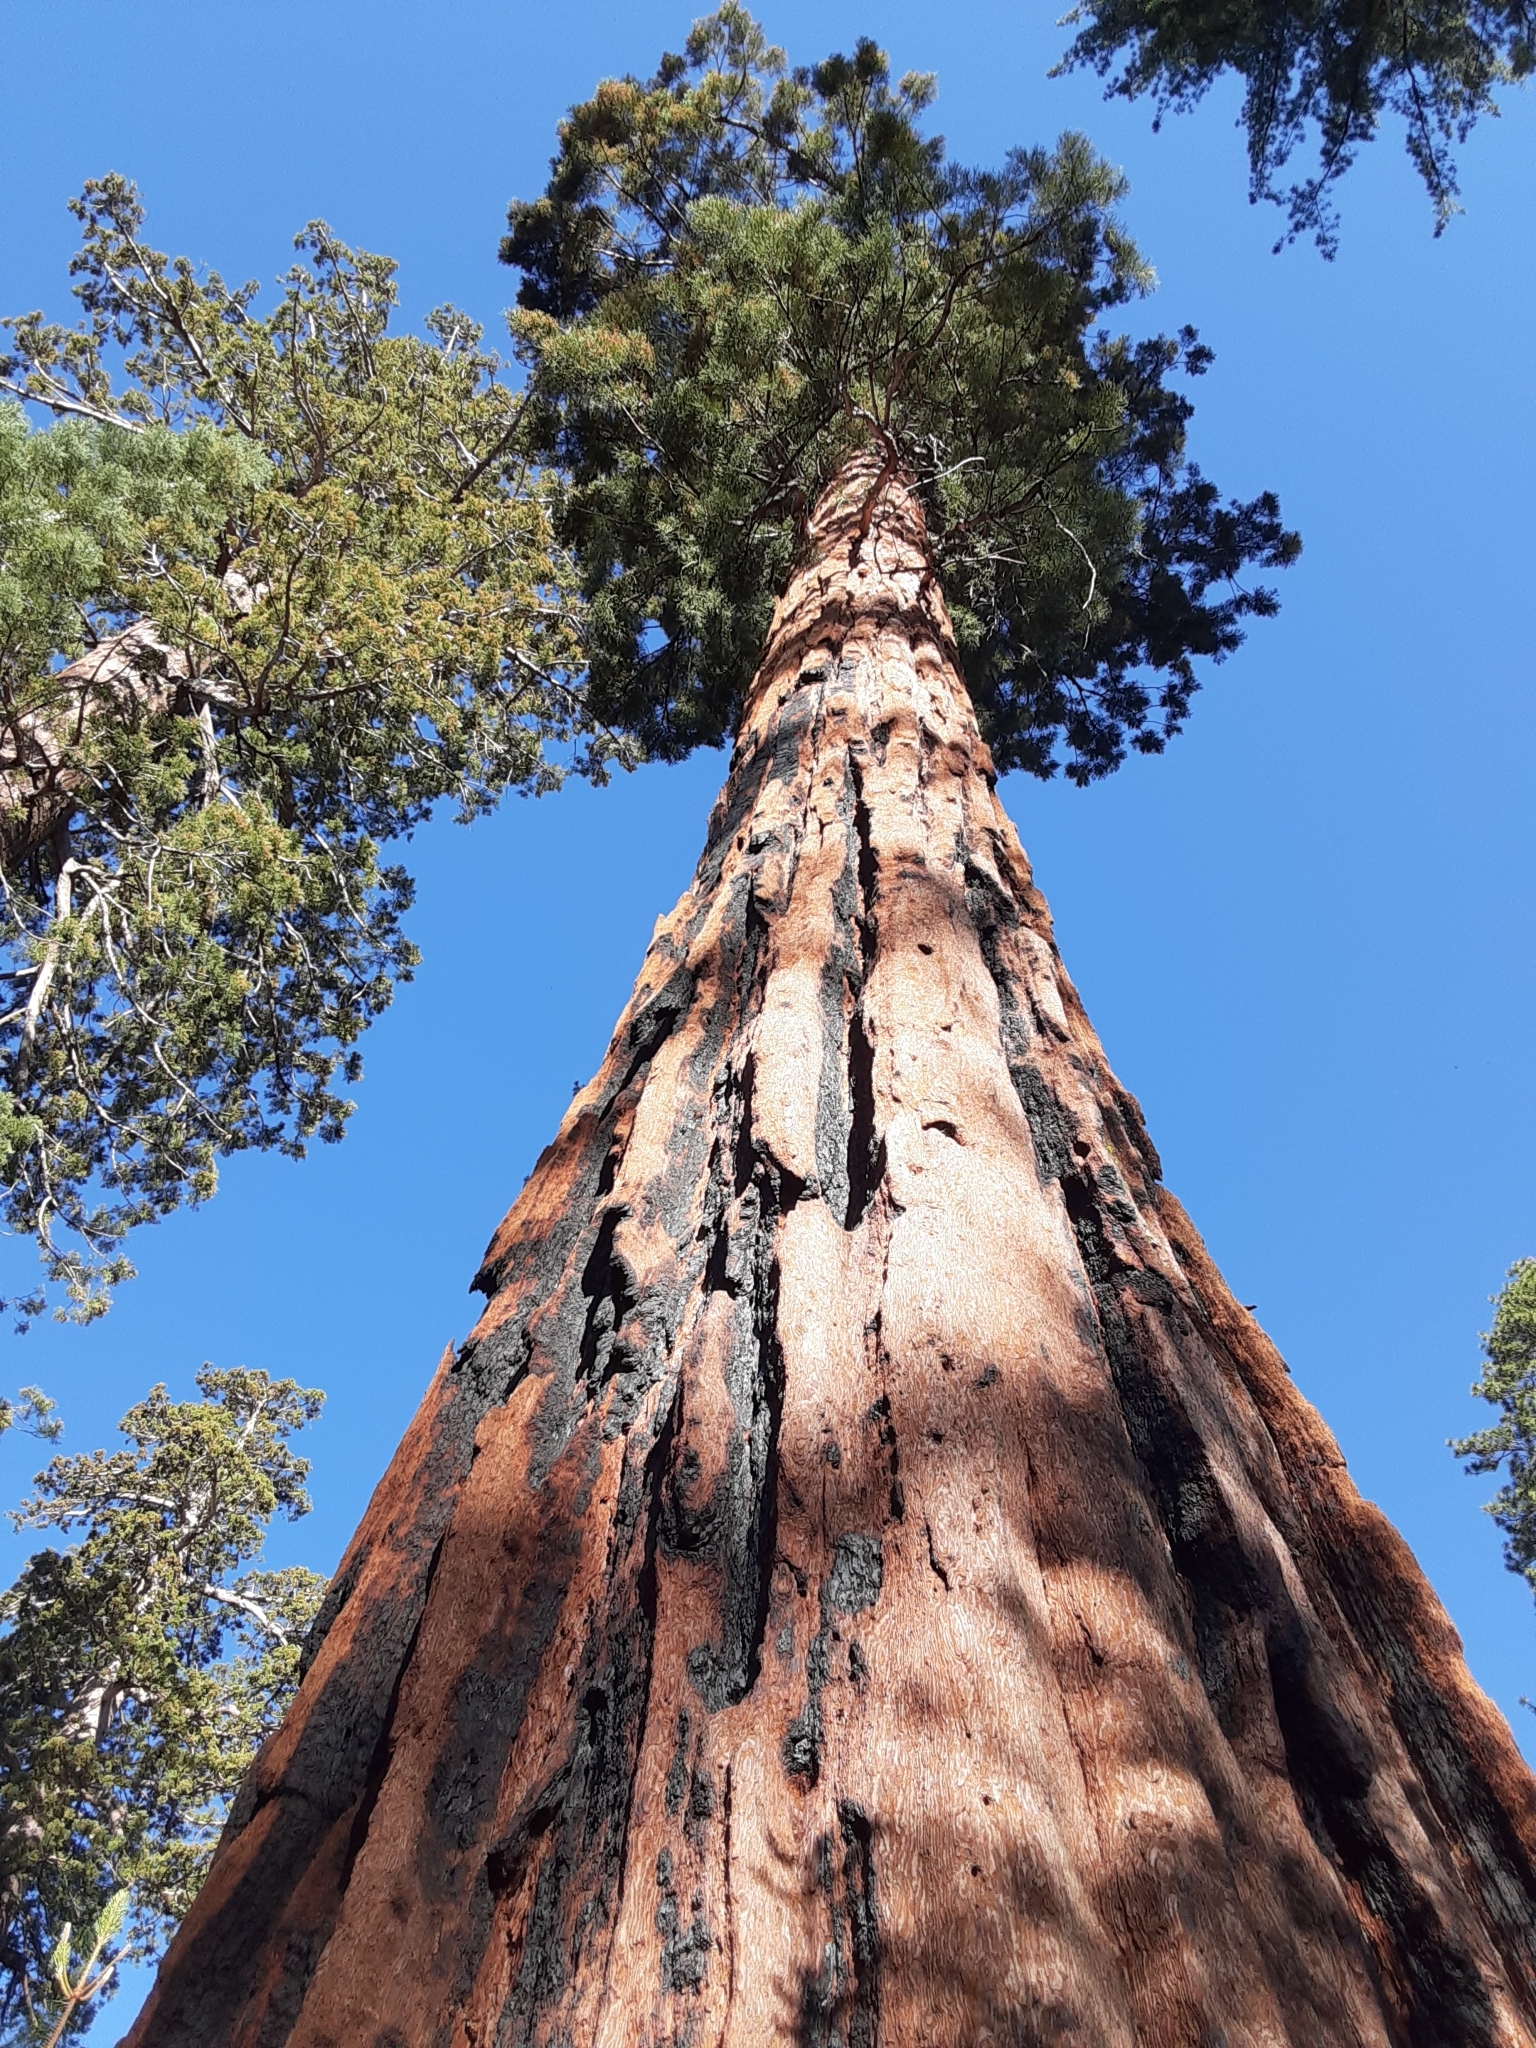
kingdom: Plantae
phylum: Tracheophyta
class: Pinopsida
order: Pinales
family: Cupressaceae
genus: Sequoiadendron
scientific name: Sequoiadendron giganteum
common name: Wellingtonia
